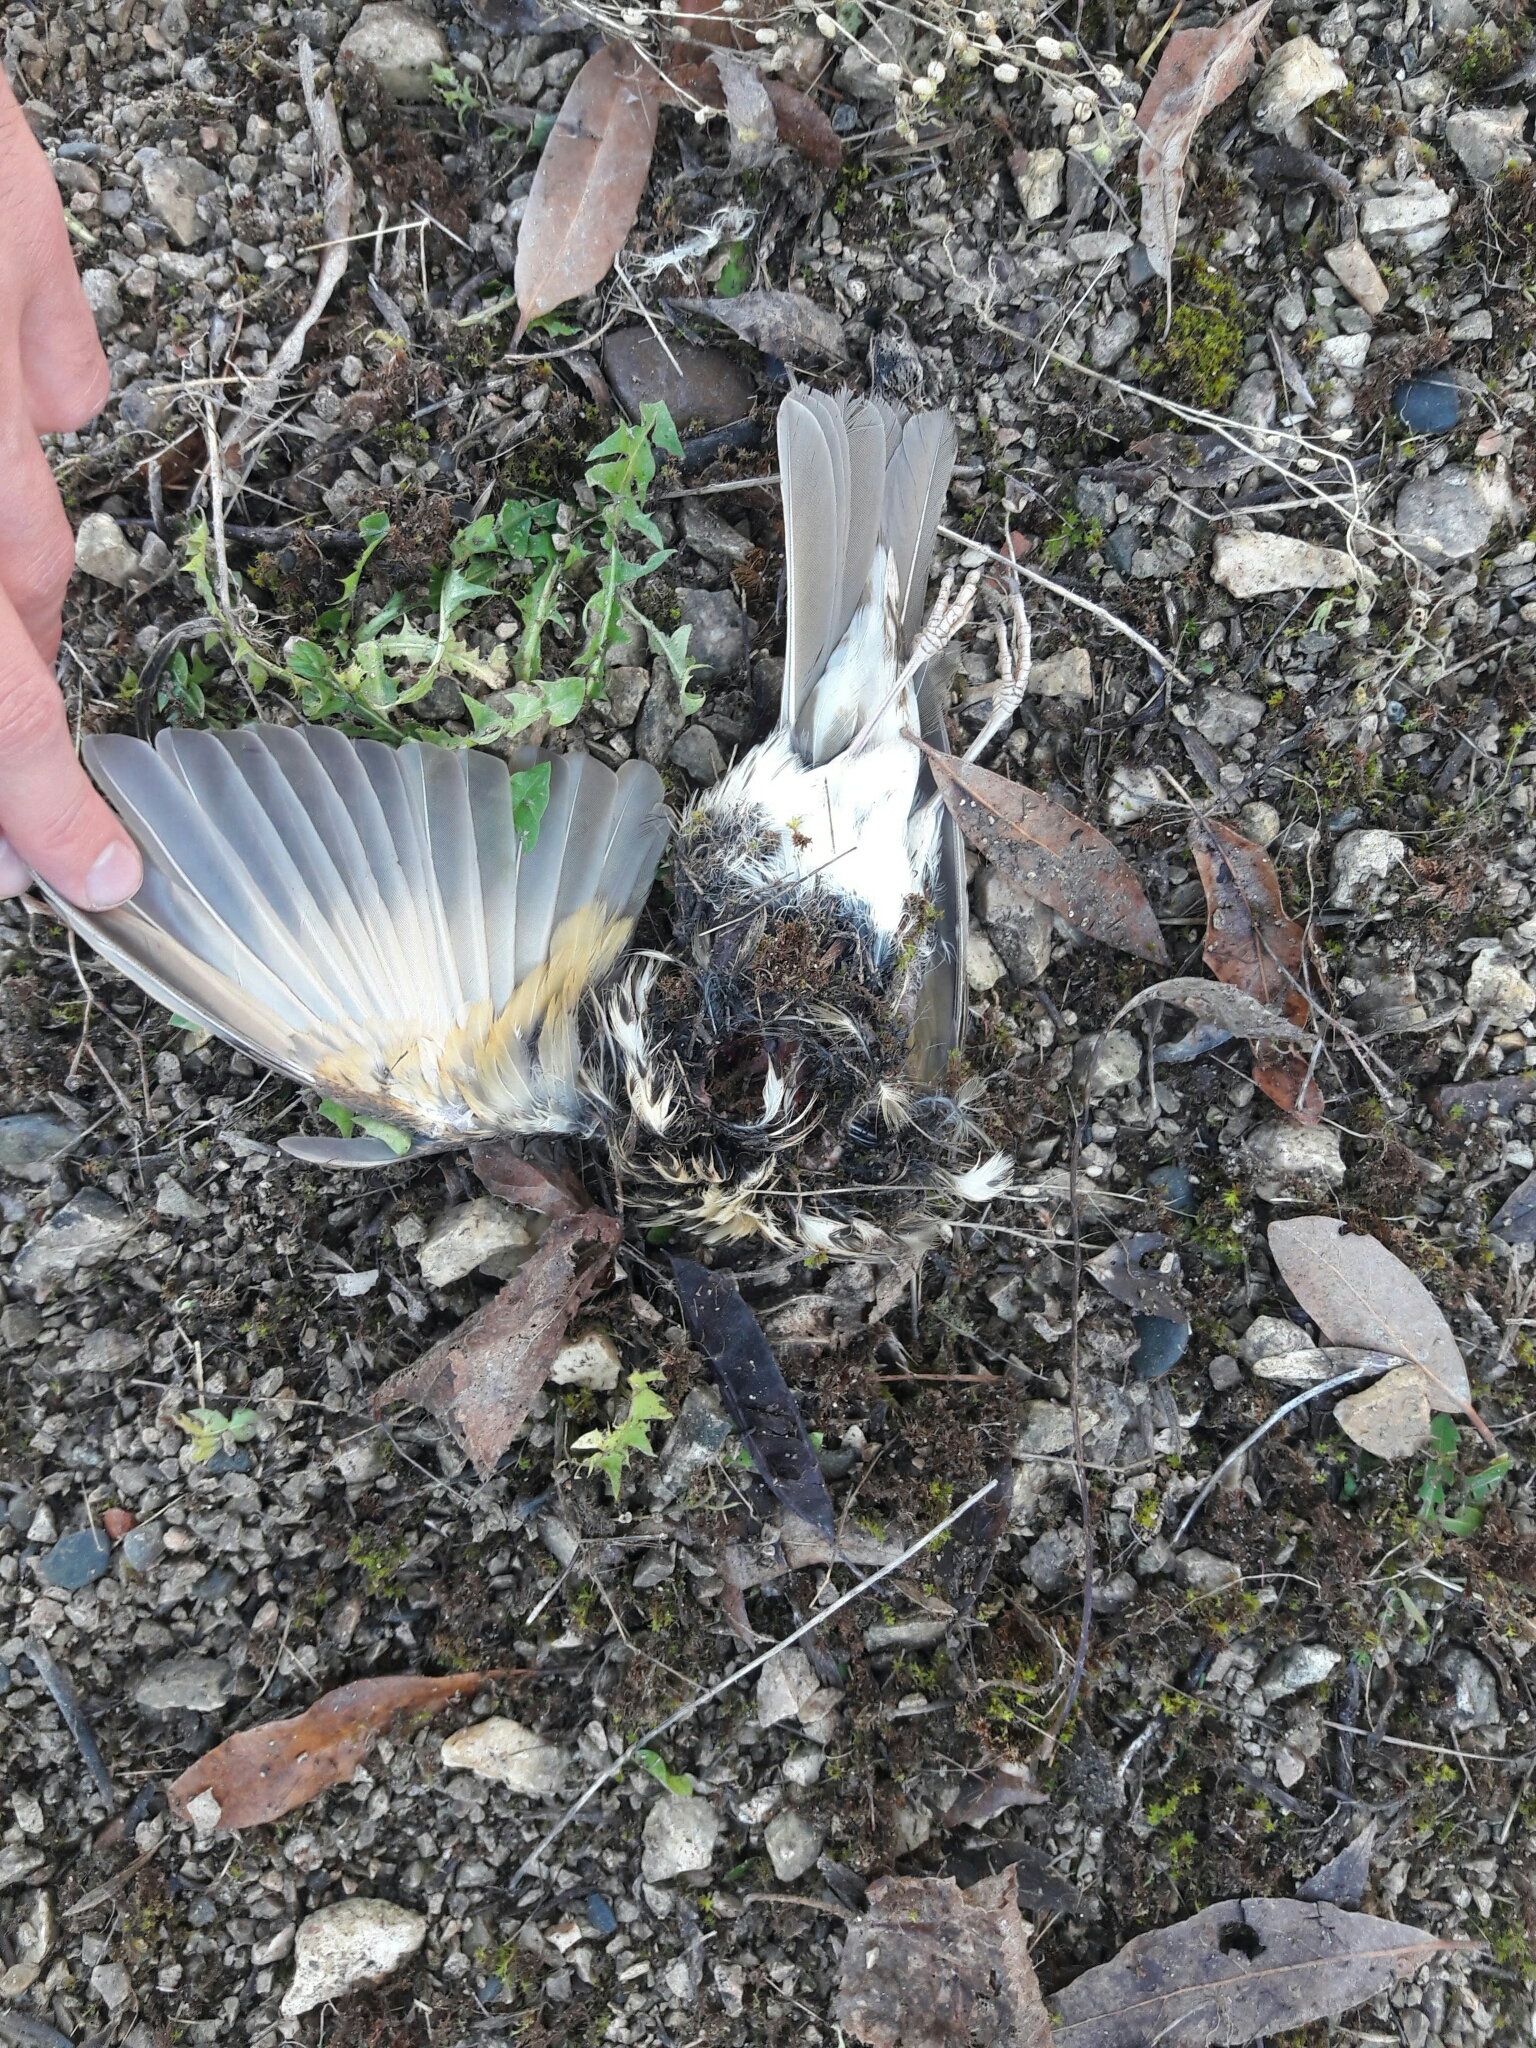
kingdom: Animalia
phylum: Chordata
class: Aves
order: Passeriformes
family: Turdidae
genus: Turdus
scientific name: Turdus philomelos
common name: Song thrush
